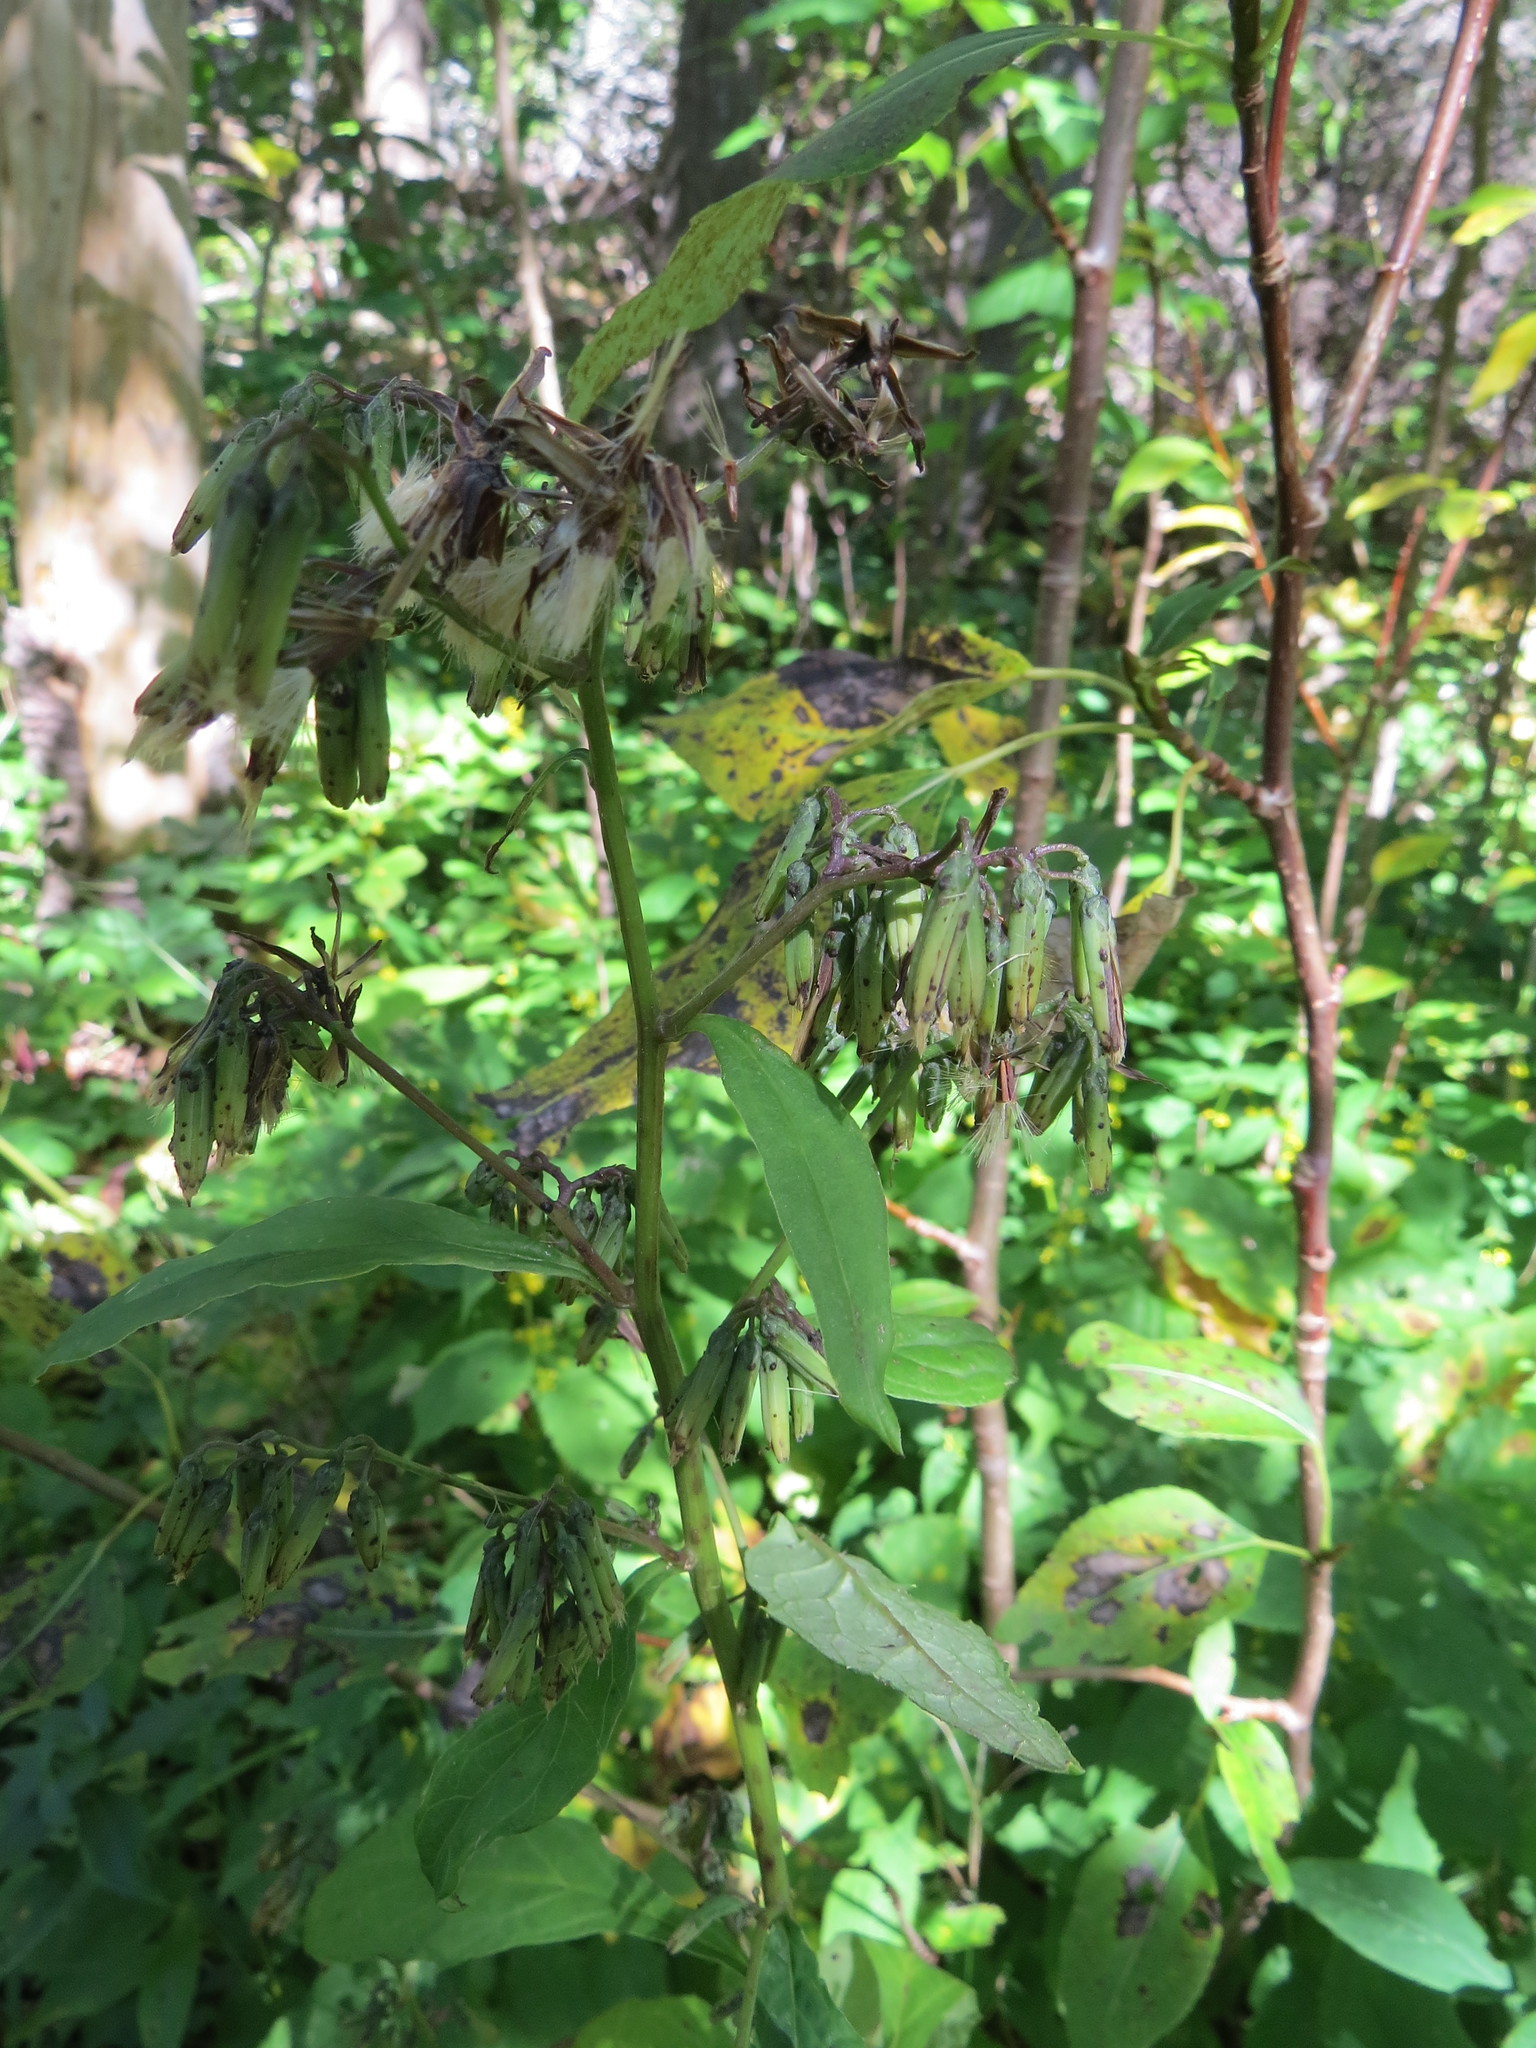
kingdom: Plantae
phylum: Tracheophyta
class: Magnoliopsida
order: Asterales
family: Asteraceae
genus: Nabalus
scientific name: Nabalus altissima
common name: Tall rattlesnakeroot
